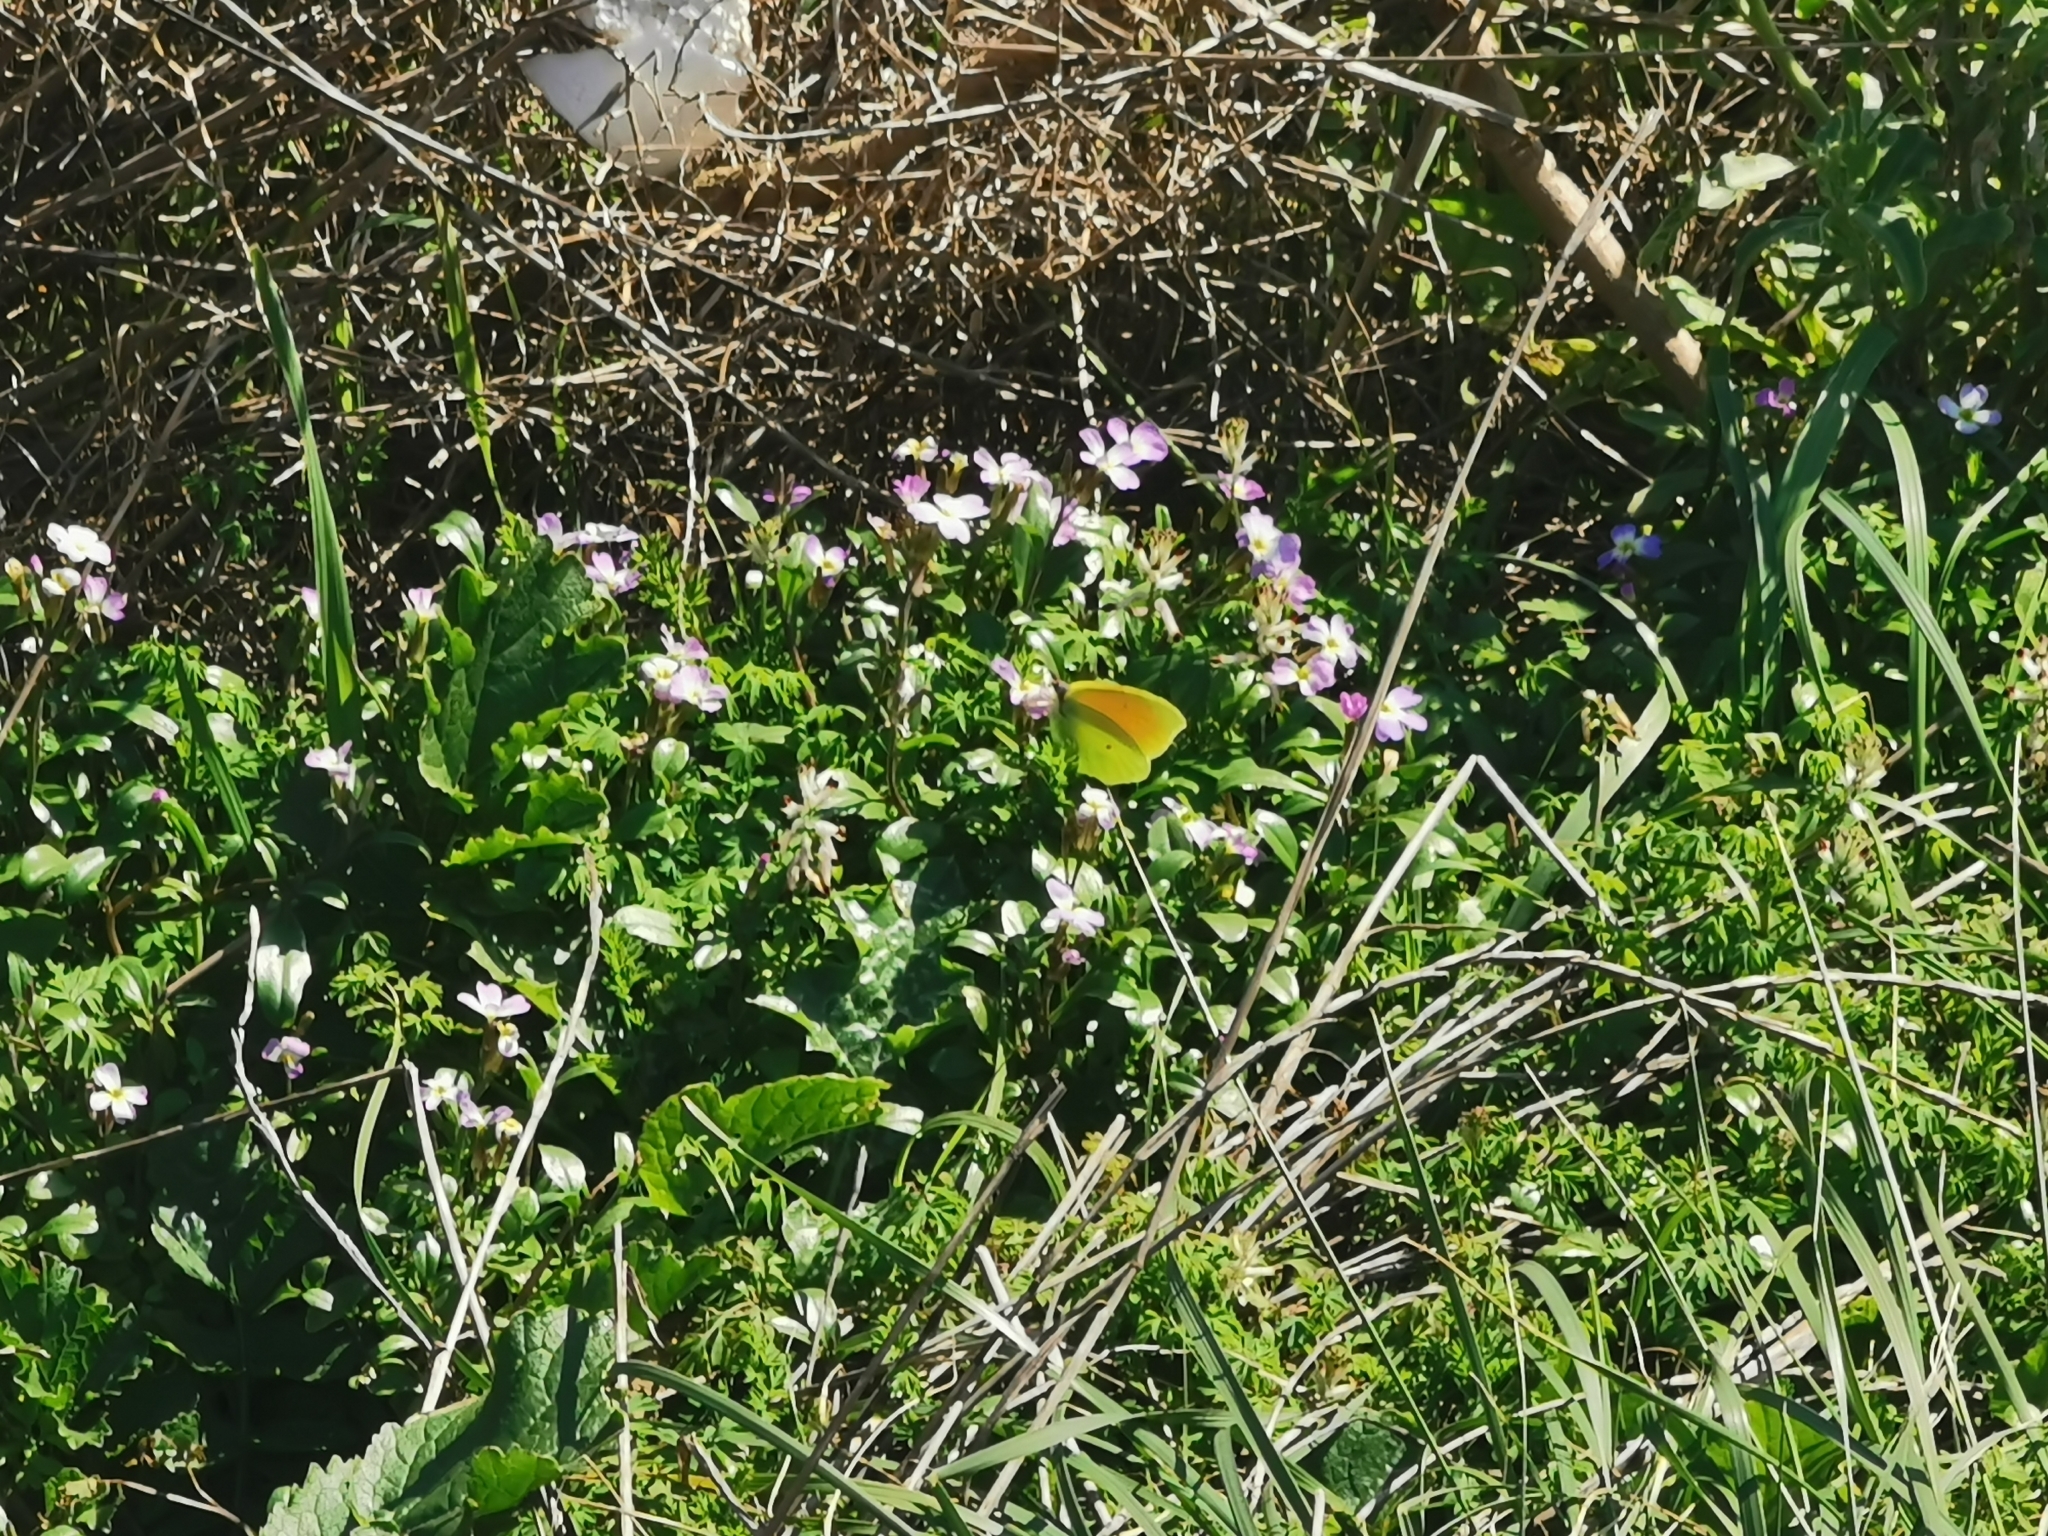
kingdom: Animalia
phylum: Arthropoda
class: Insecta
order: Lepidoptera
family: Pieridae
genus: Gonepteryx
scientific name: Gonepteryx cleopatra
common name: Cleopatra
